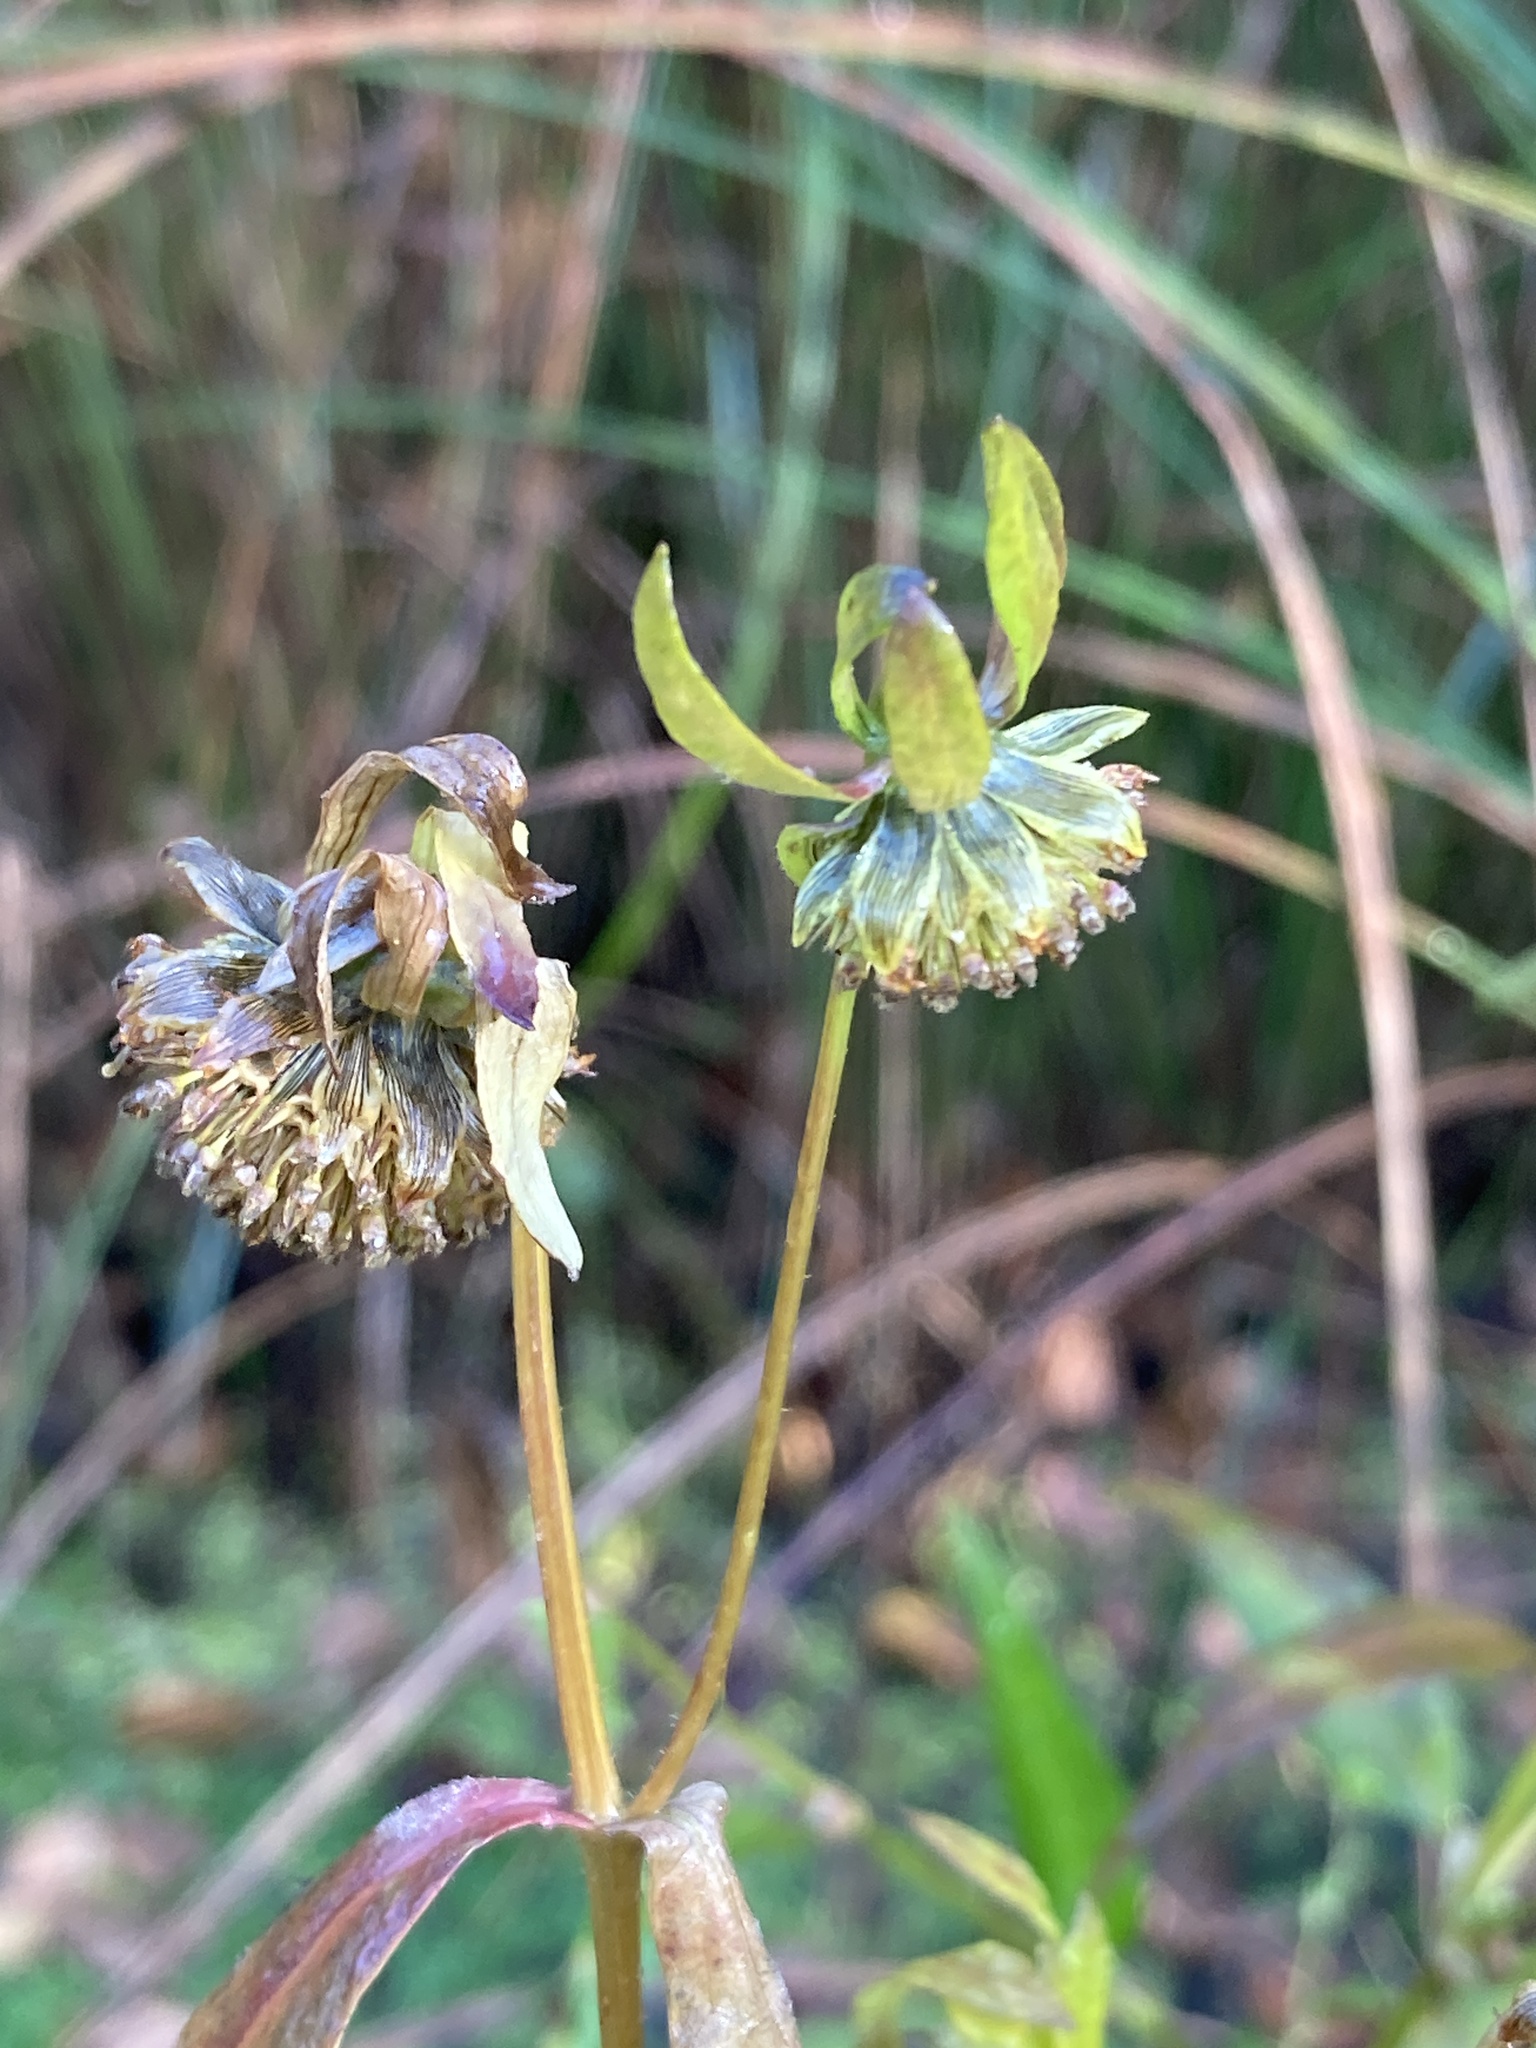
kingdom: Plantae
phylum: Tracheophyta
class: Magnoliopsida
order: Asterales
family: Asteraceae
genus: Bidens
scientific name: Bidens cernua
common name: Nodding bur-marigold
